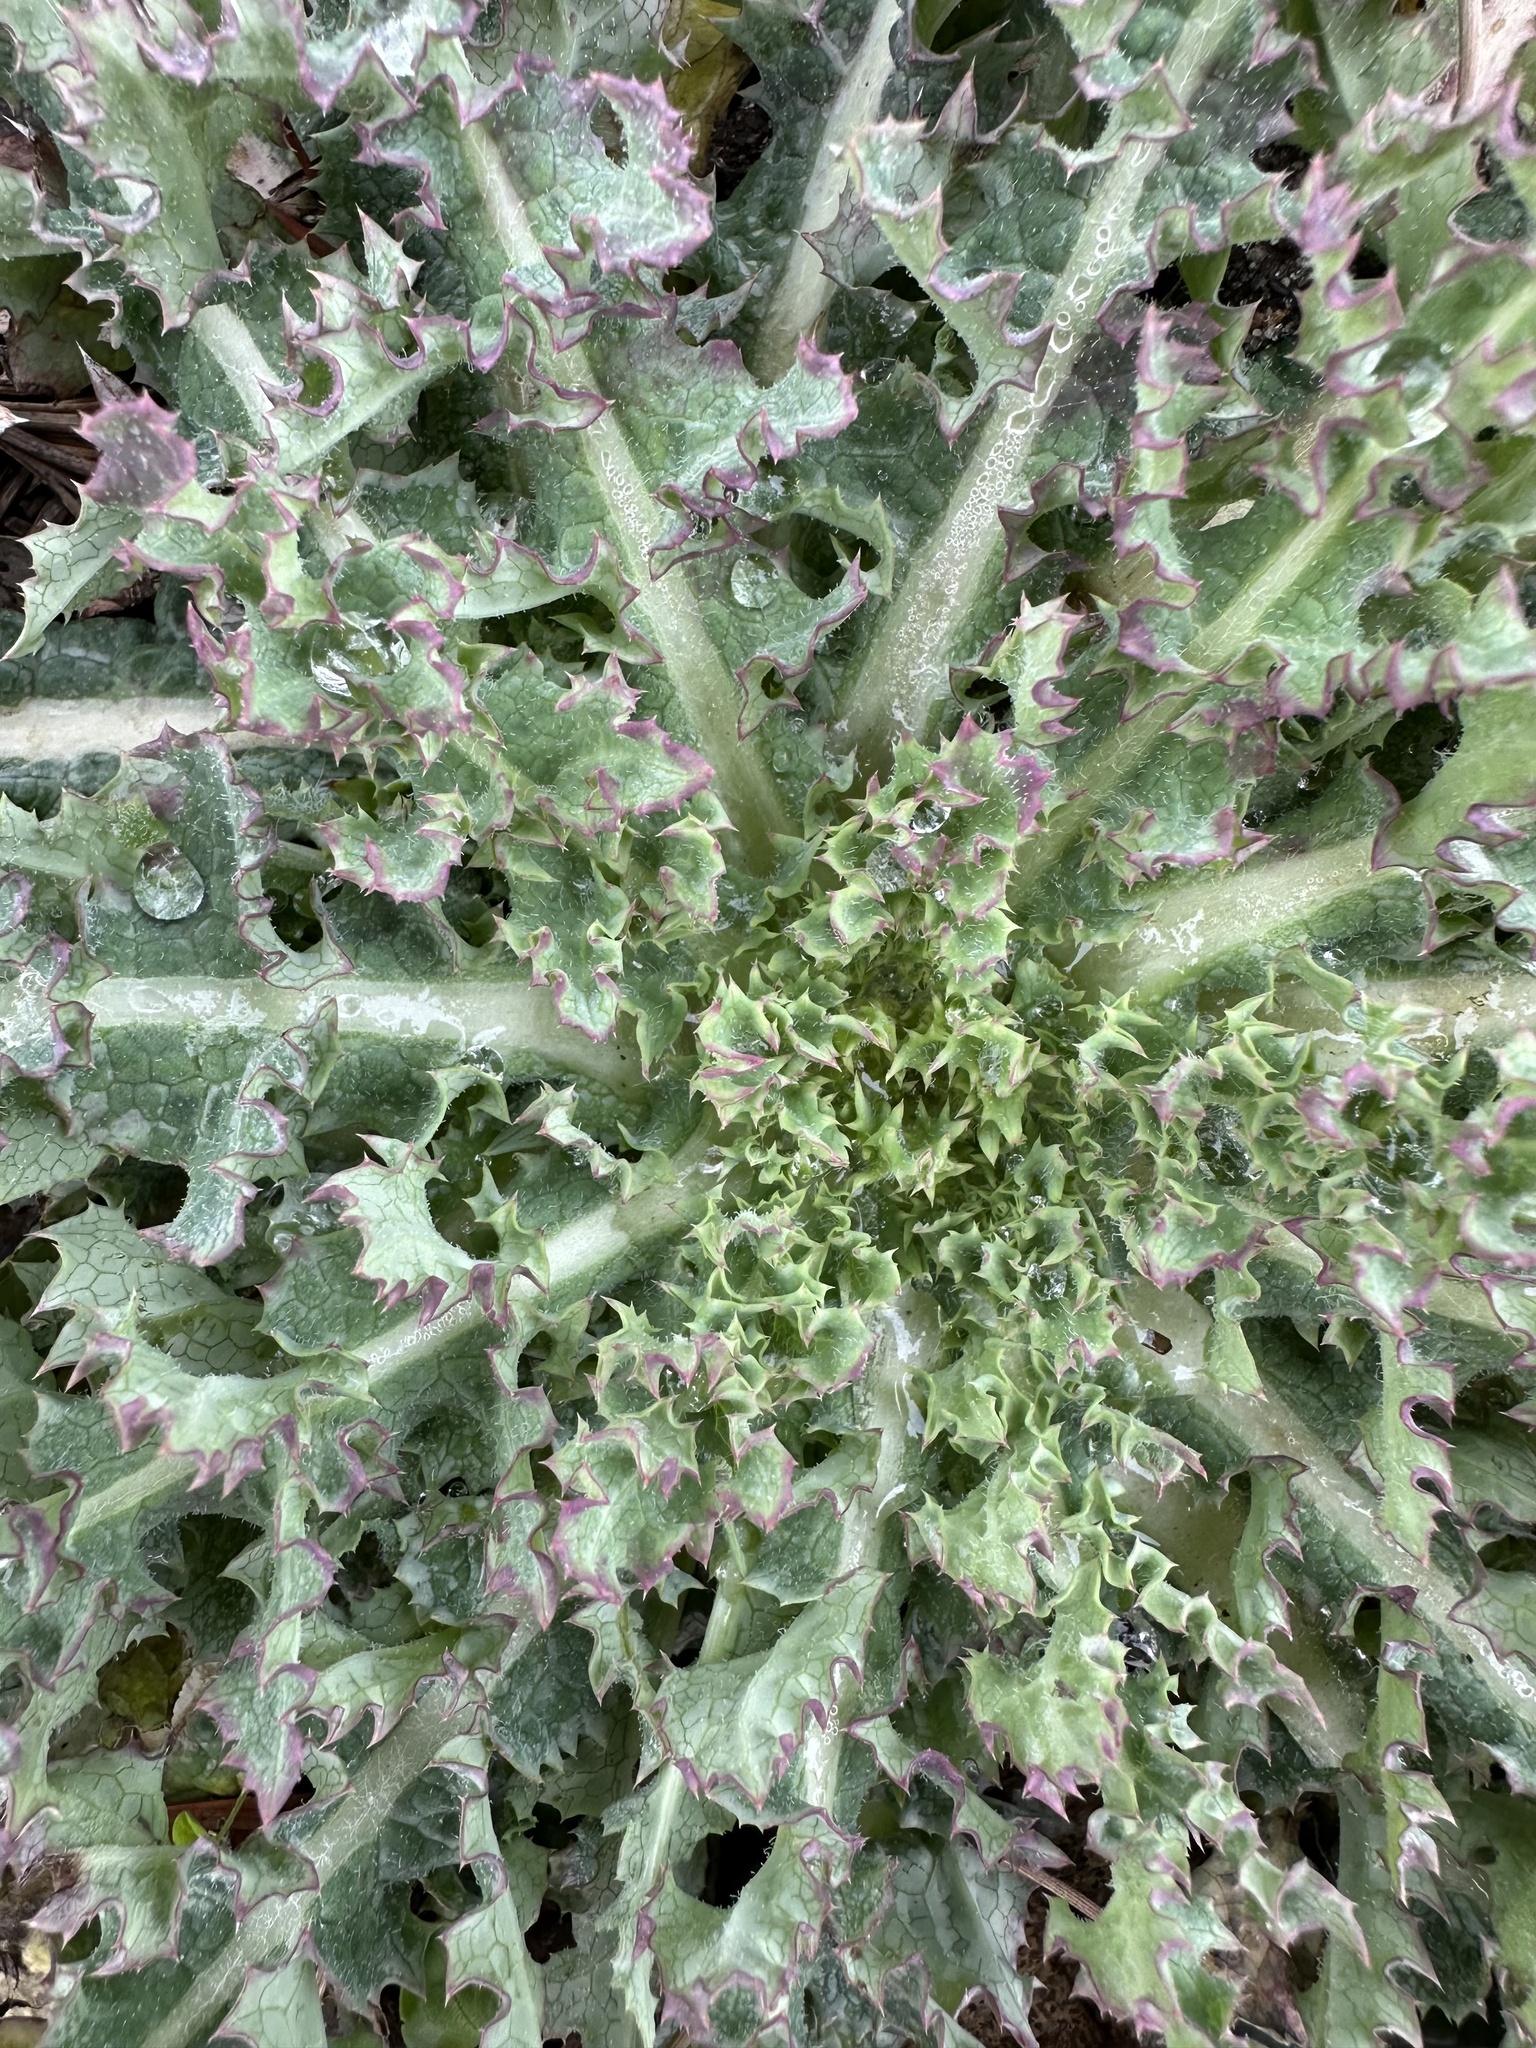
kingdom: Plantae
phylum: Tracheophyta
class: Magnoliopsida
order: Asterales
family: Asteraceae
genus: Sonchus
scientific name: Sonchus asper
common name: Prickly sow-thistle
